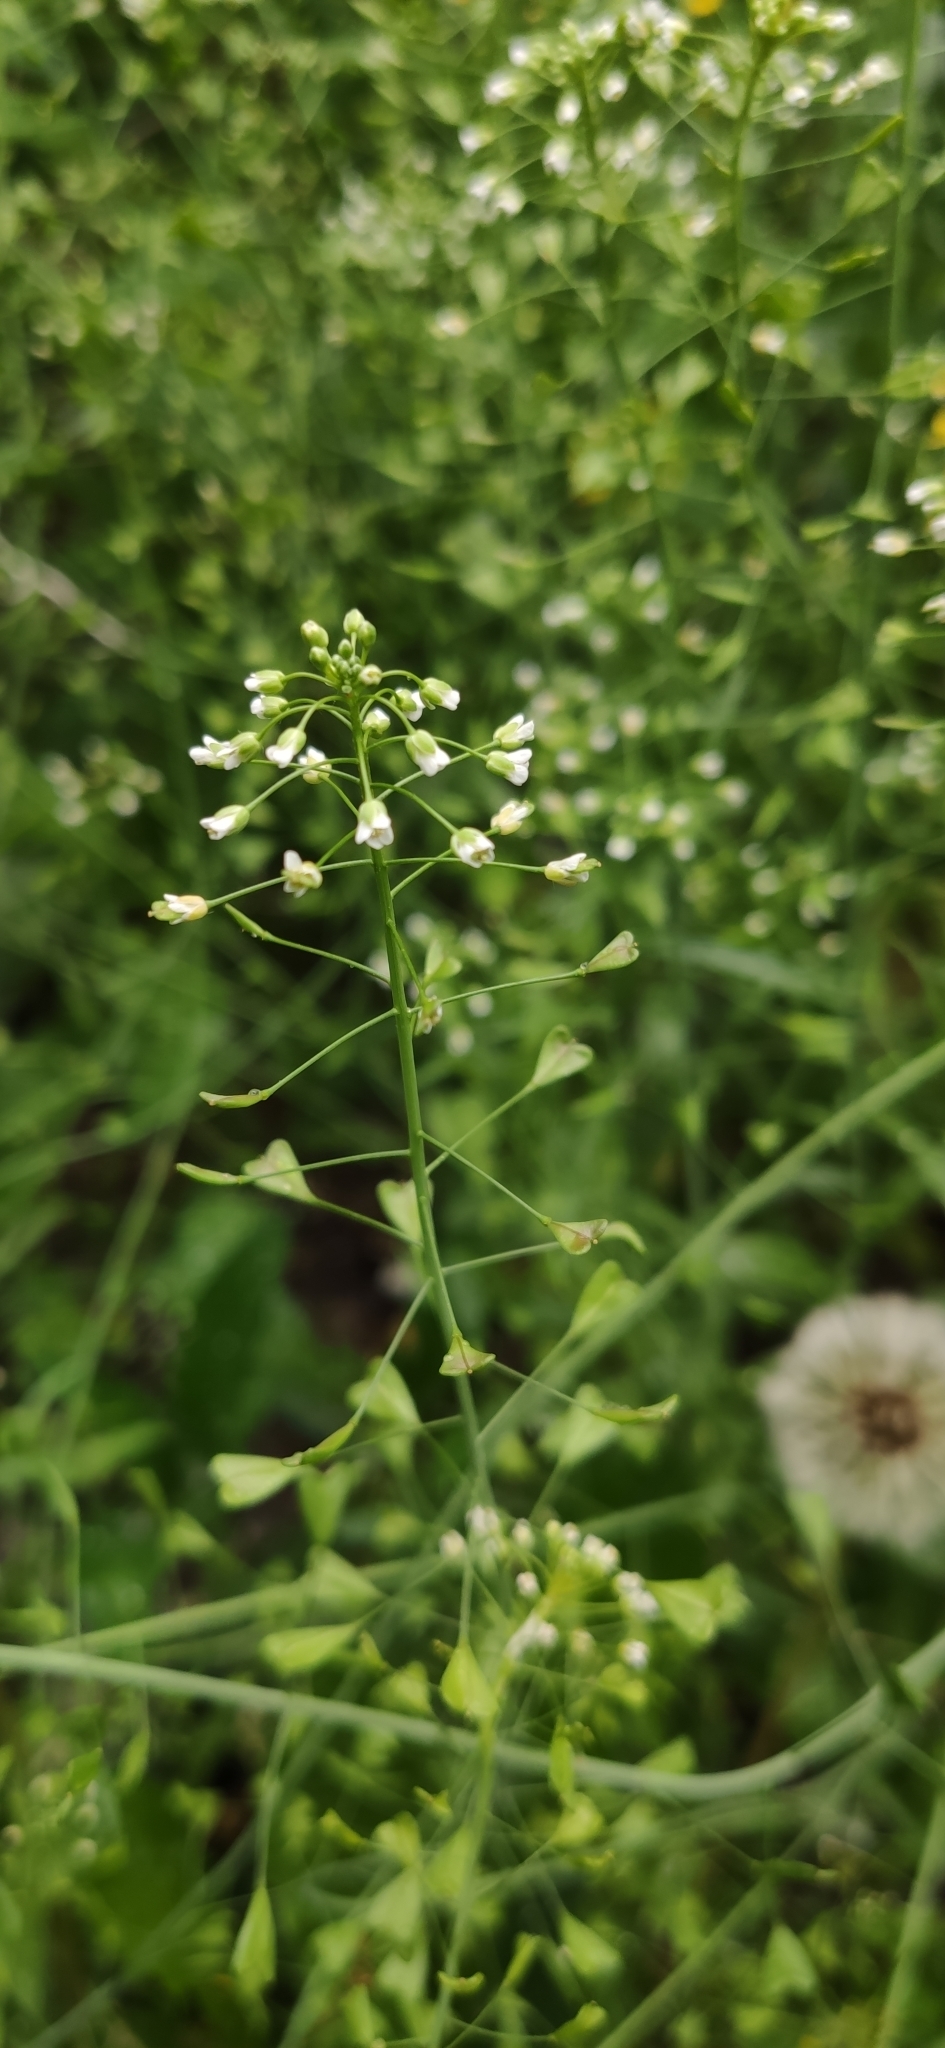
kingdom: Plantae
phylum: Tracheophyta
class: Magnoliopsida
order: Brassicales
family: Brassicaceae
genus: Capsella
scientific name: Capsella bursa-pastoris
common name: Shepherd's purse
